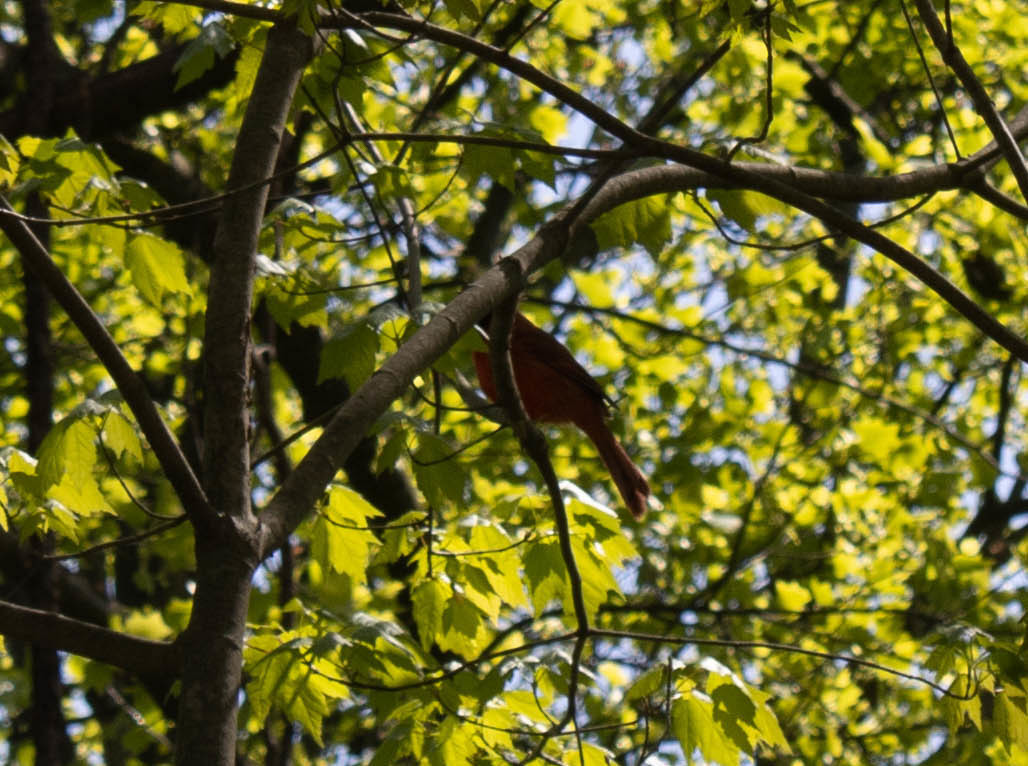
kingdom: Animalia
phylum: Chordata
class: Aves
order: Passeriformes
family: Cardinalidae
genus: Cardinalis
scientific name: Cardinalis cardinalis
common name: Northern cardinal
